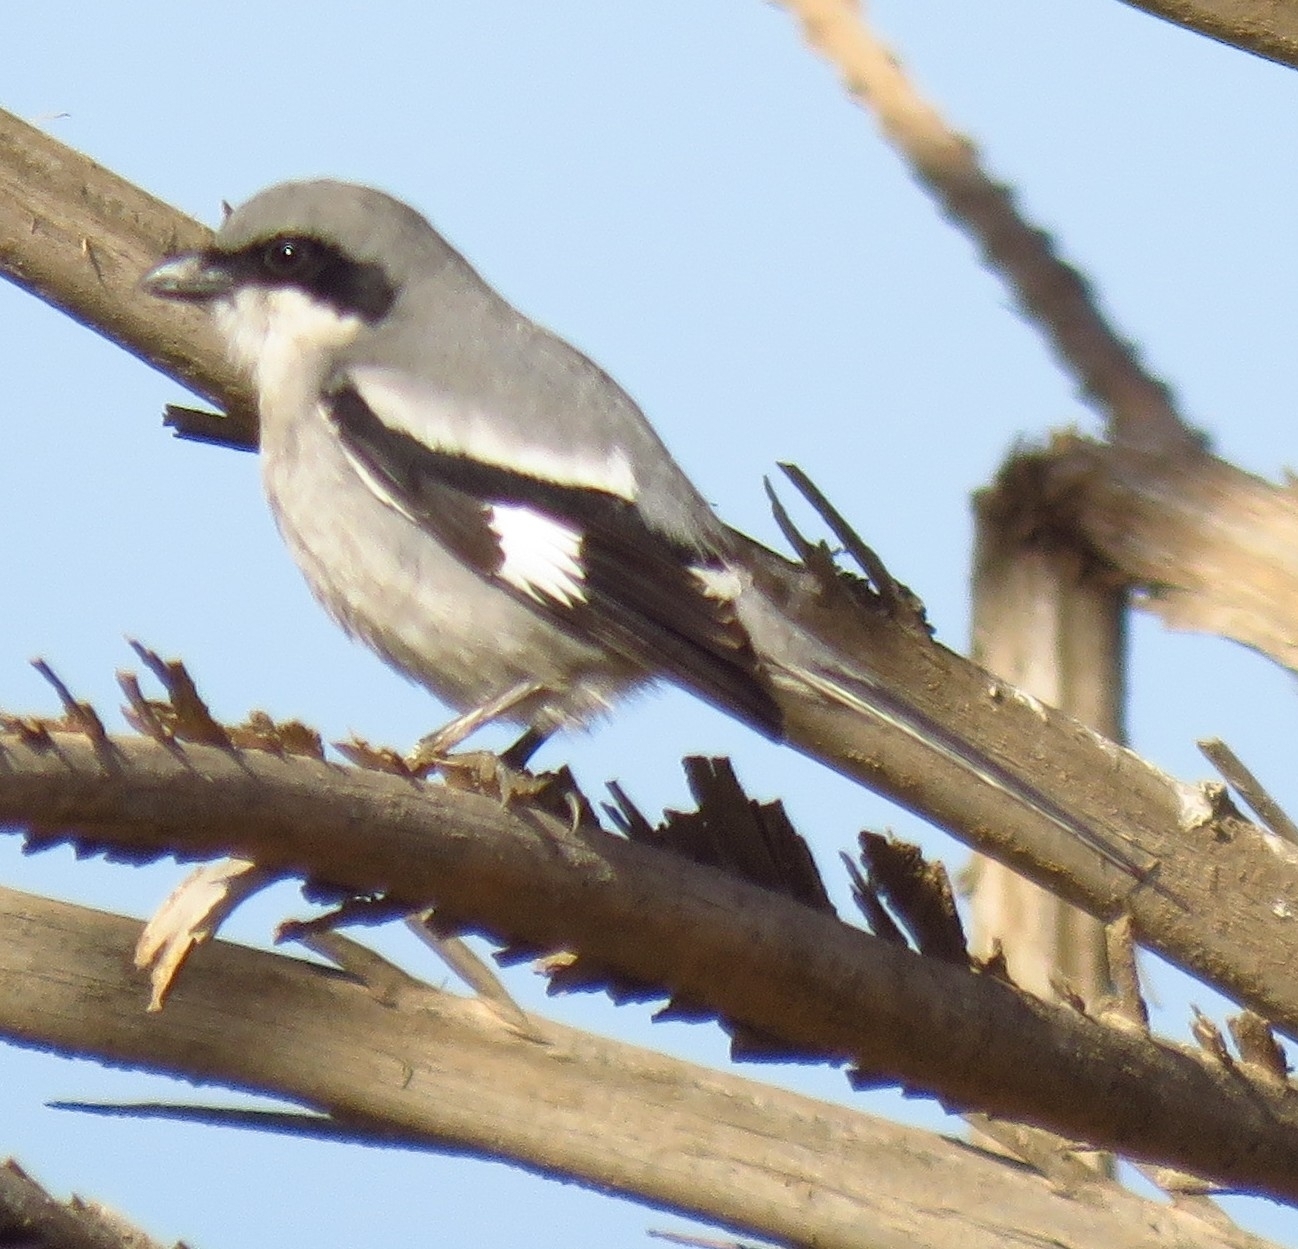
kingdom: Animalia
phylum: Chordata
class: Aves
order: Passeriformes
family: Laniidae
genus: Lanius
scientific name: Lanius excubitor
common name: Great grey shrike
